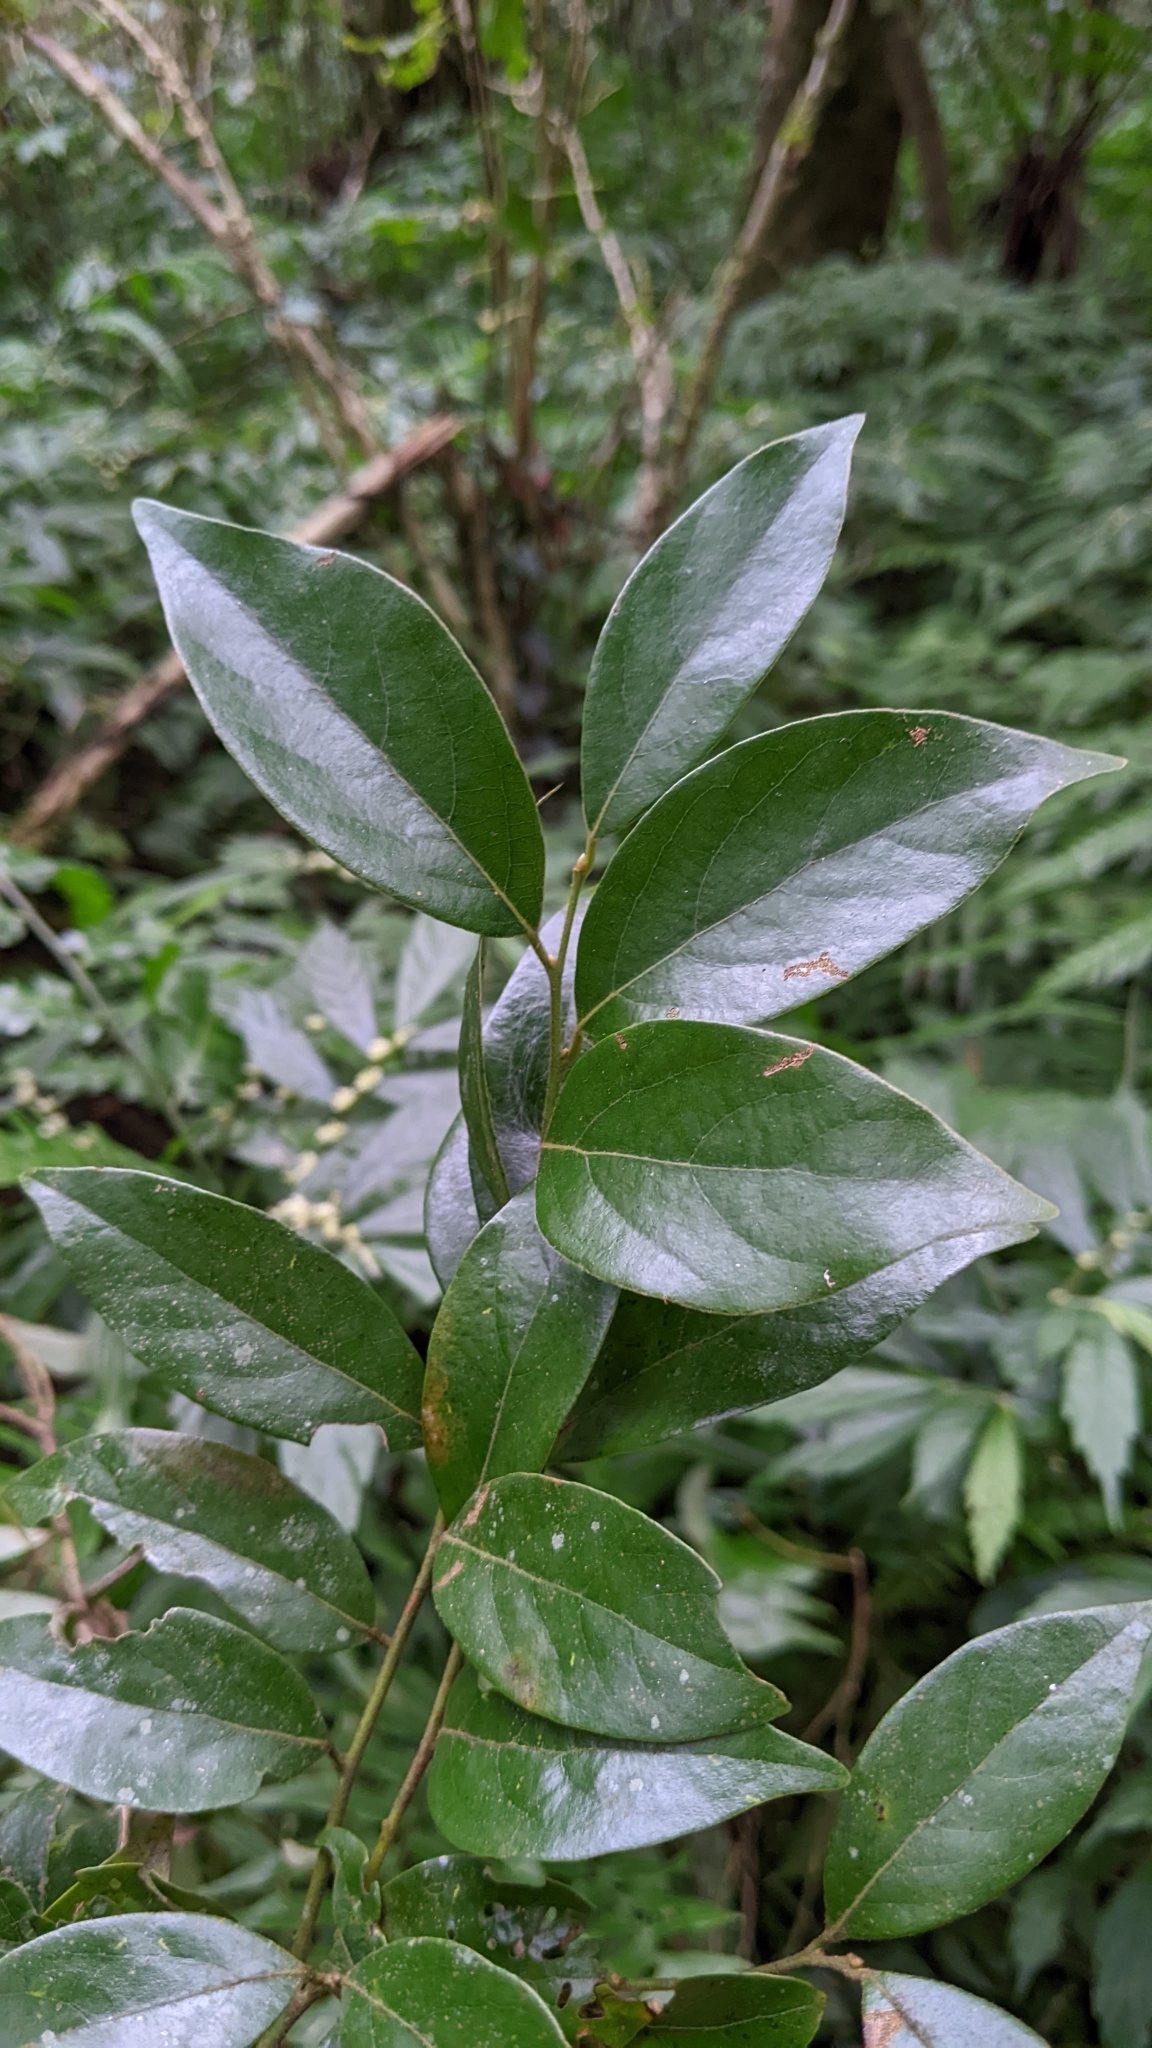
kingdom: Plantae
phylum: Tracheophyta
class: Magnoliopsida
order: Laurales
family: Lauraceae
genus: Lindera
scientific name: Lindera communis
